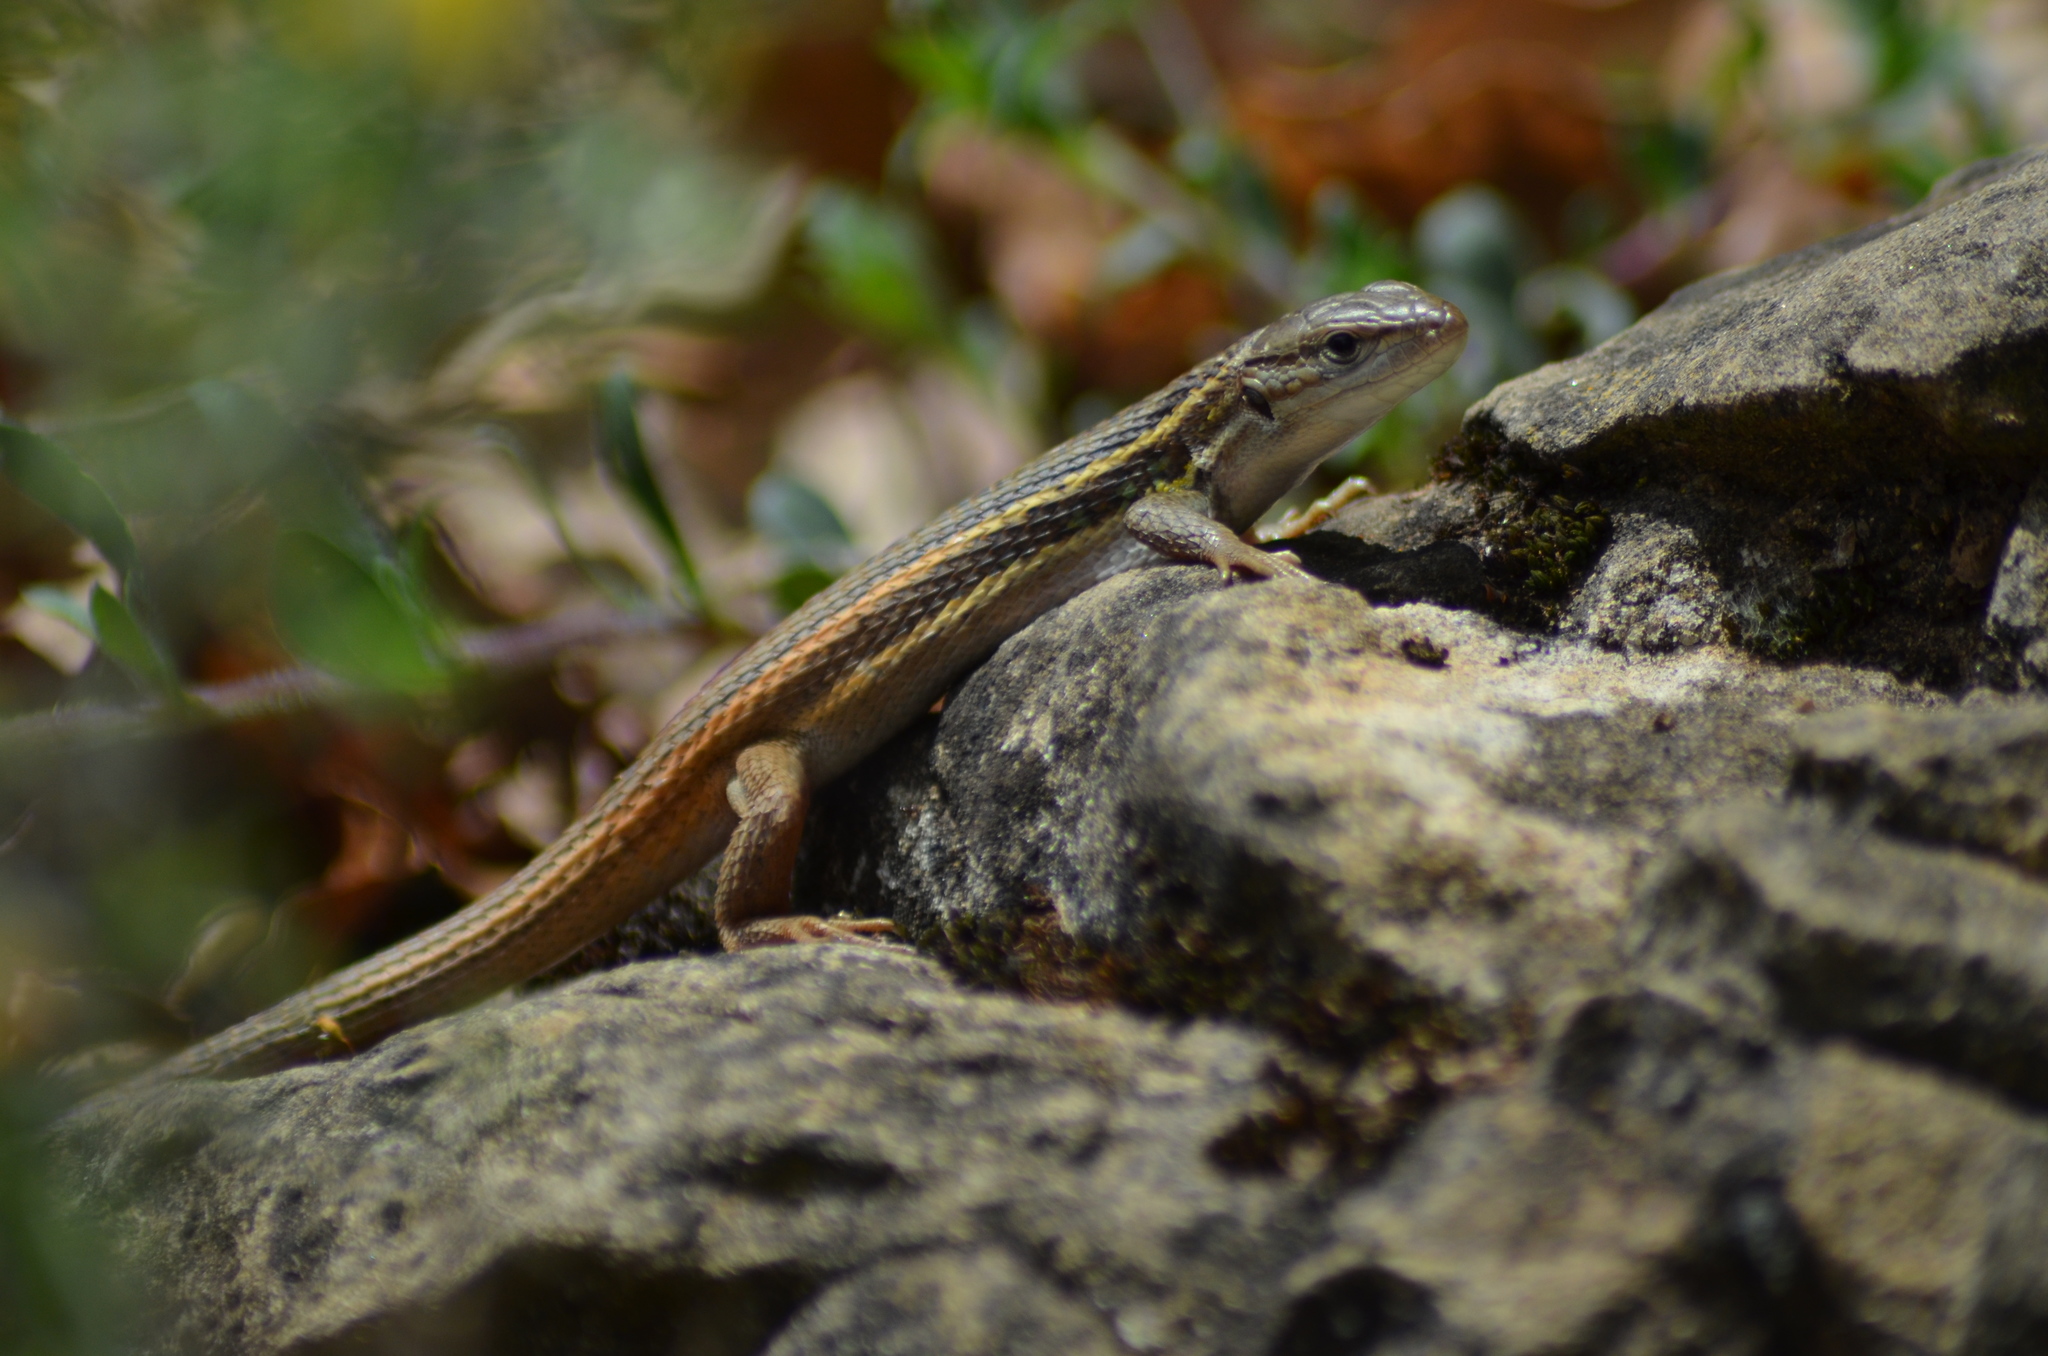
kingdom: Animalia
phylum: Chordata
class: Squamata
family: Lacertidae
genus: Psammodromus
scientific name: Psammodromus algirus
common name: Algerian psammodromus
